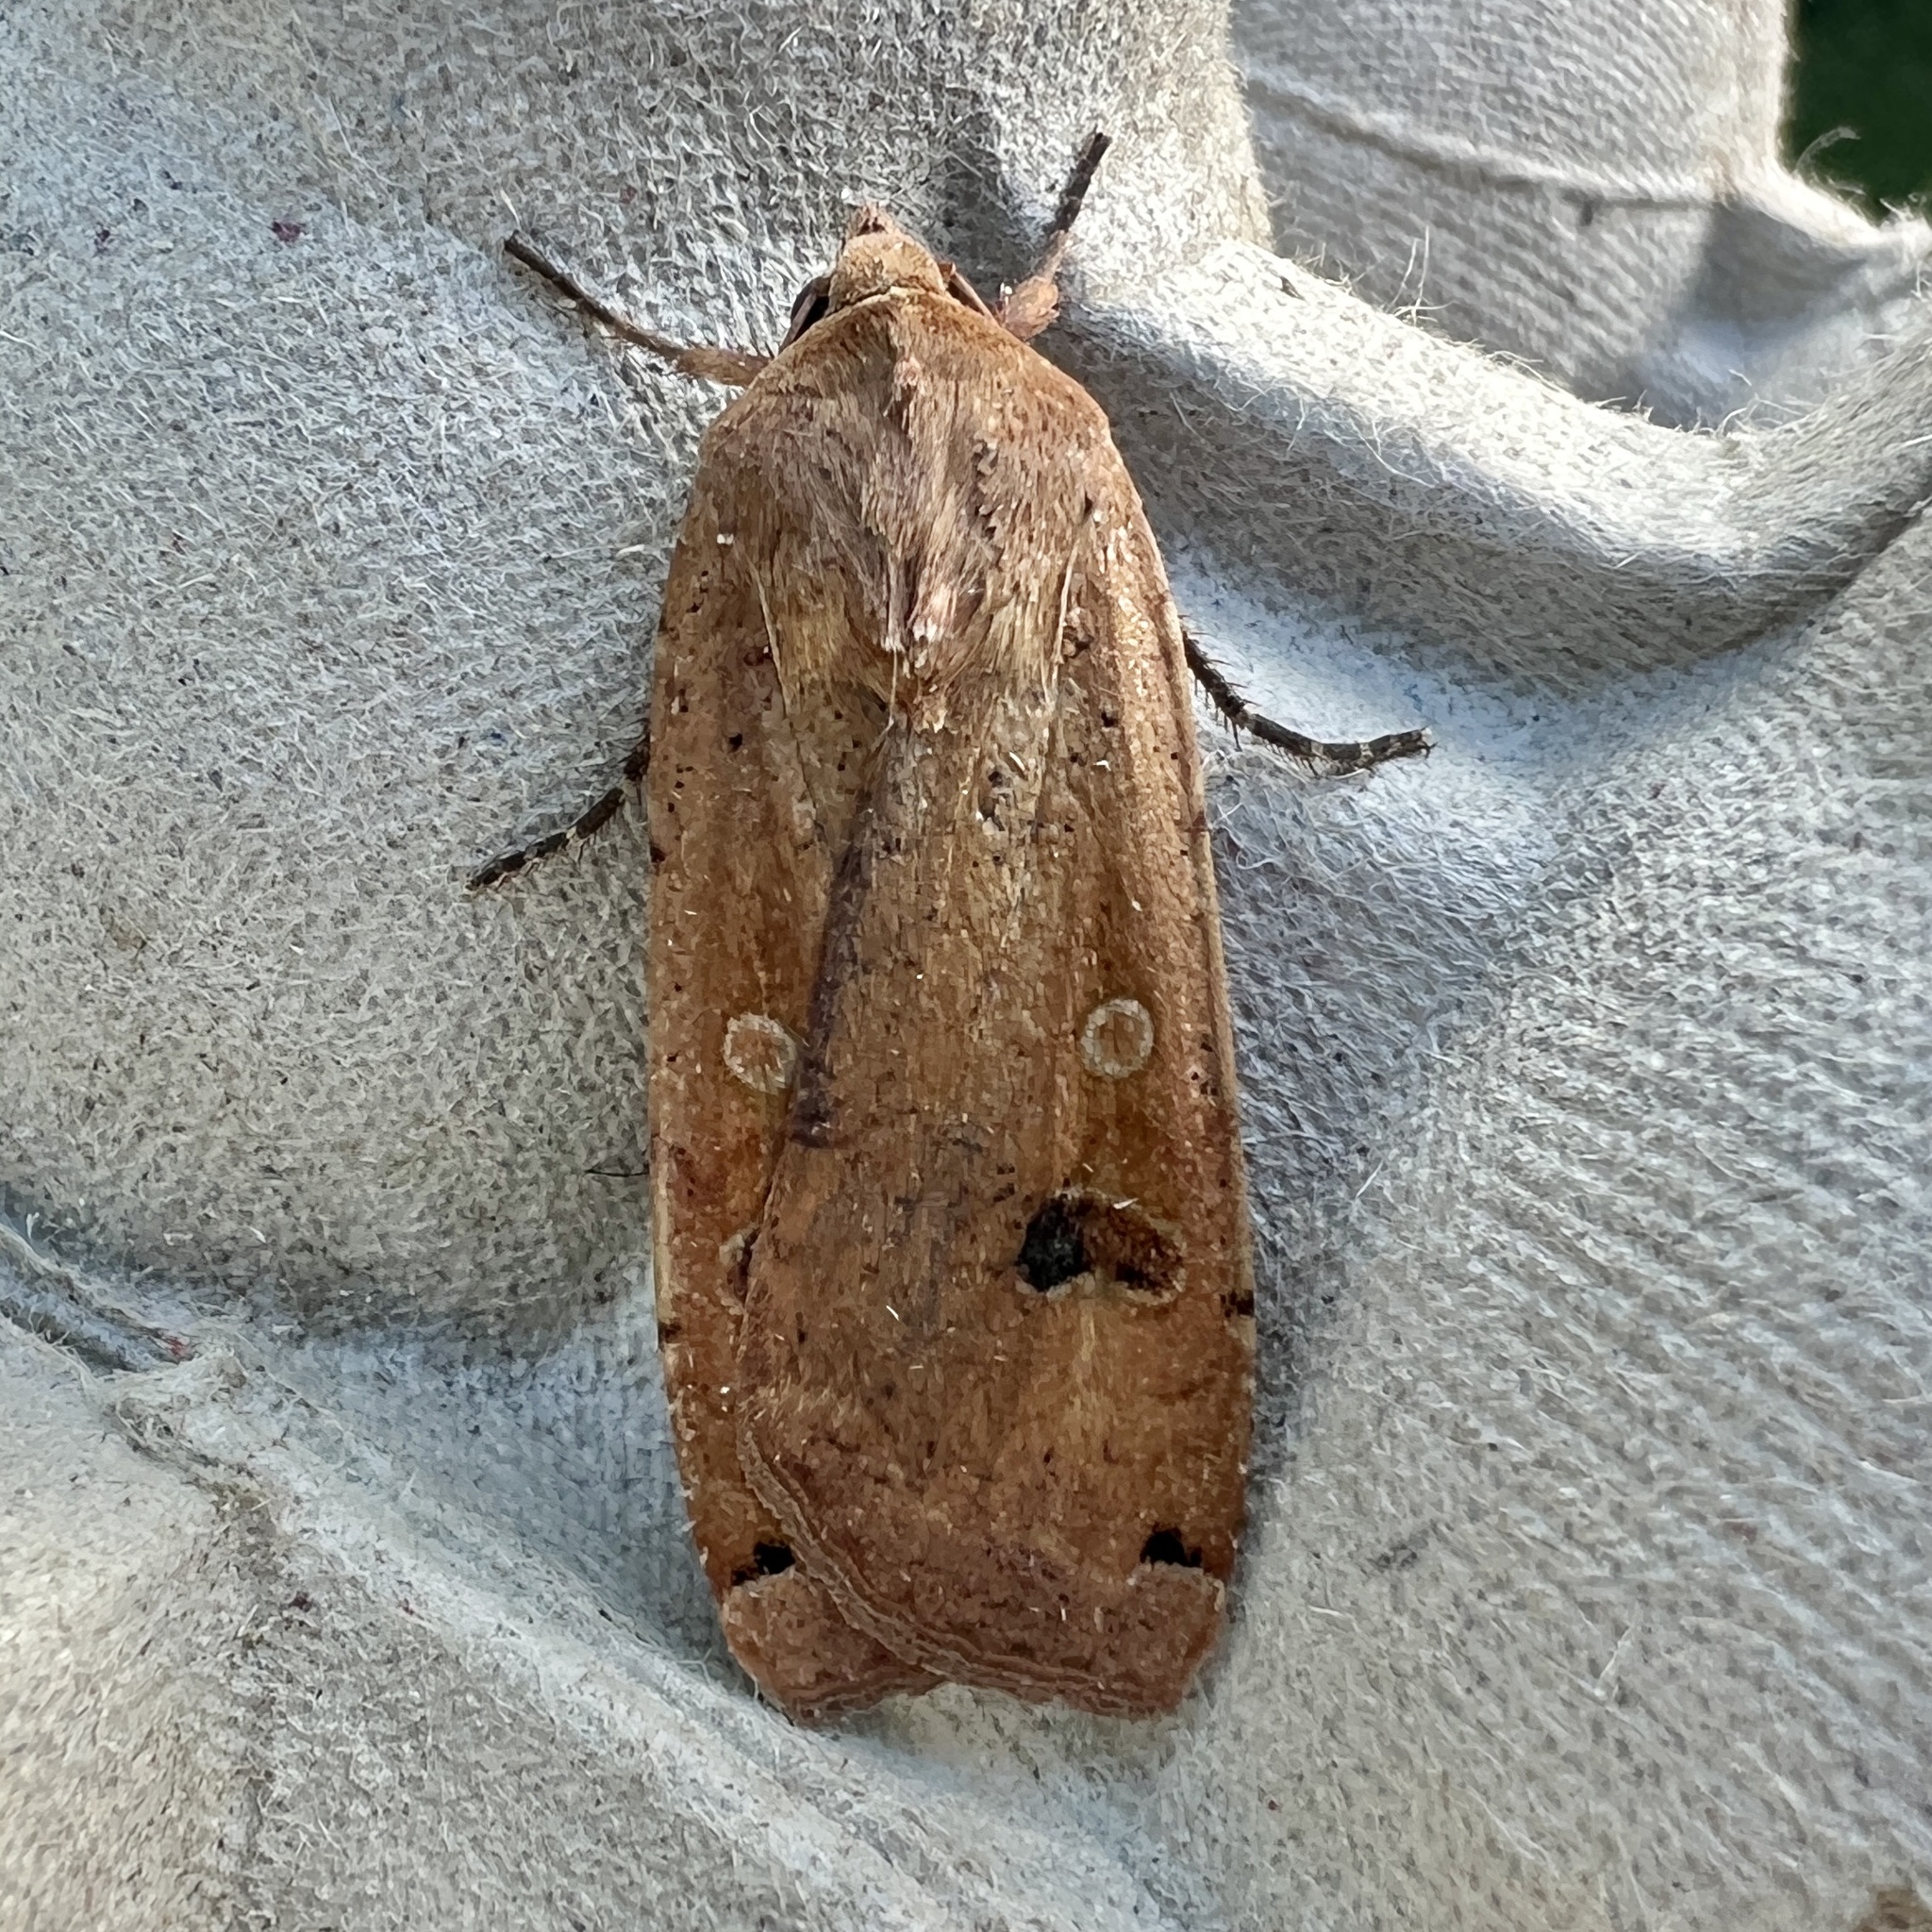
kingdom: Animalia
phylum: Arthropoda
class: Insecta
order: Lepidoptera
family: Noctuidae
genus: Noctua
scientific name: Noctua pronuba
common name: Large yellow underwing
